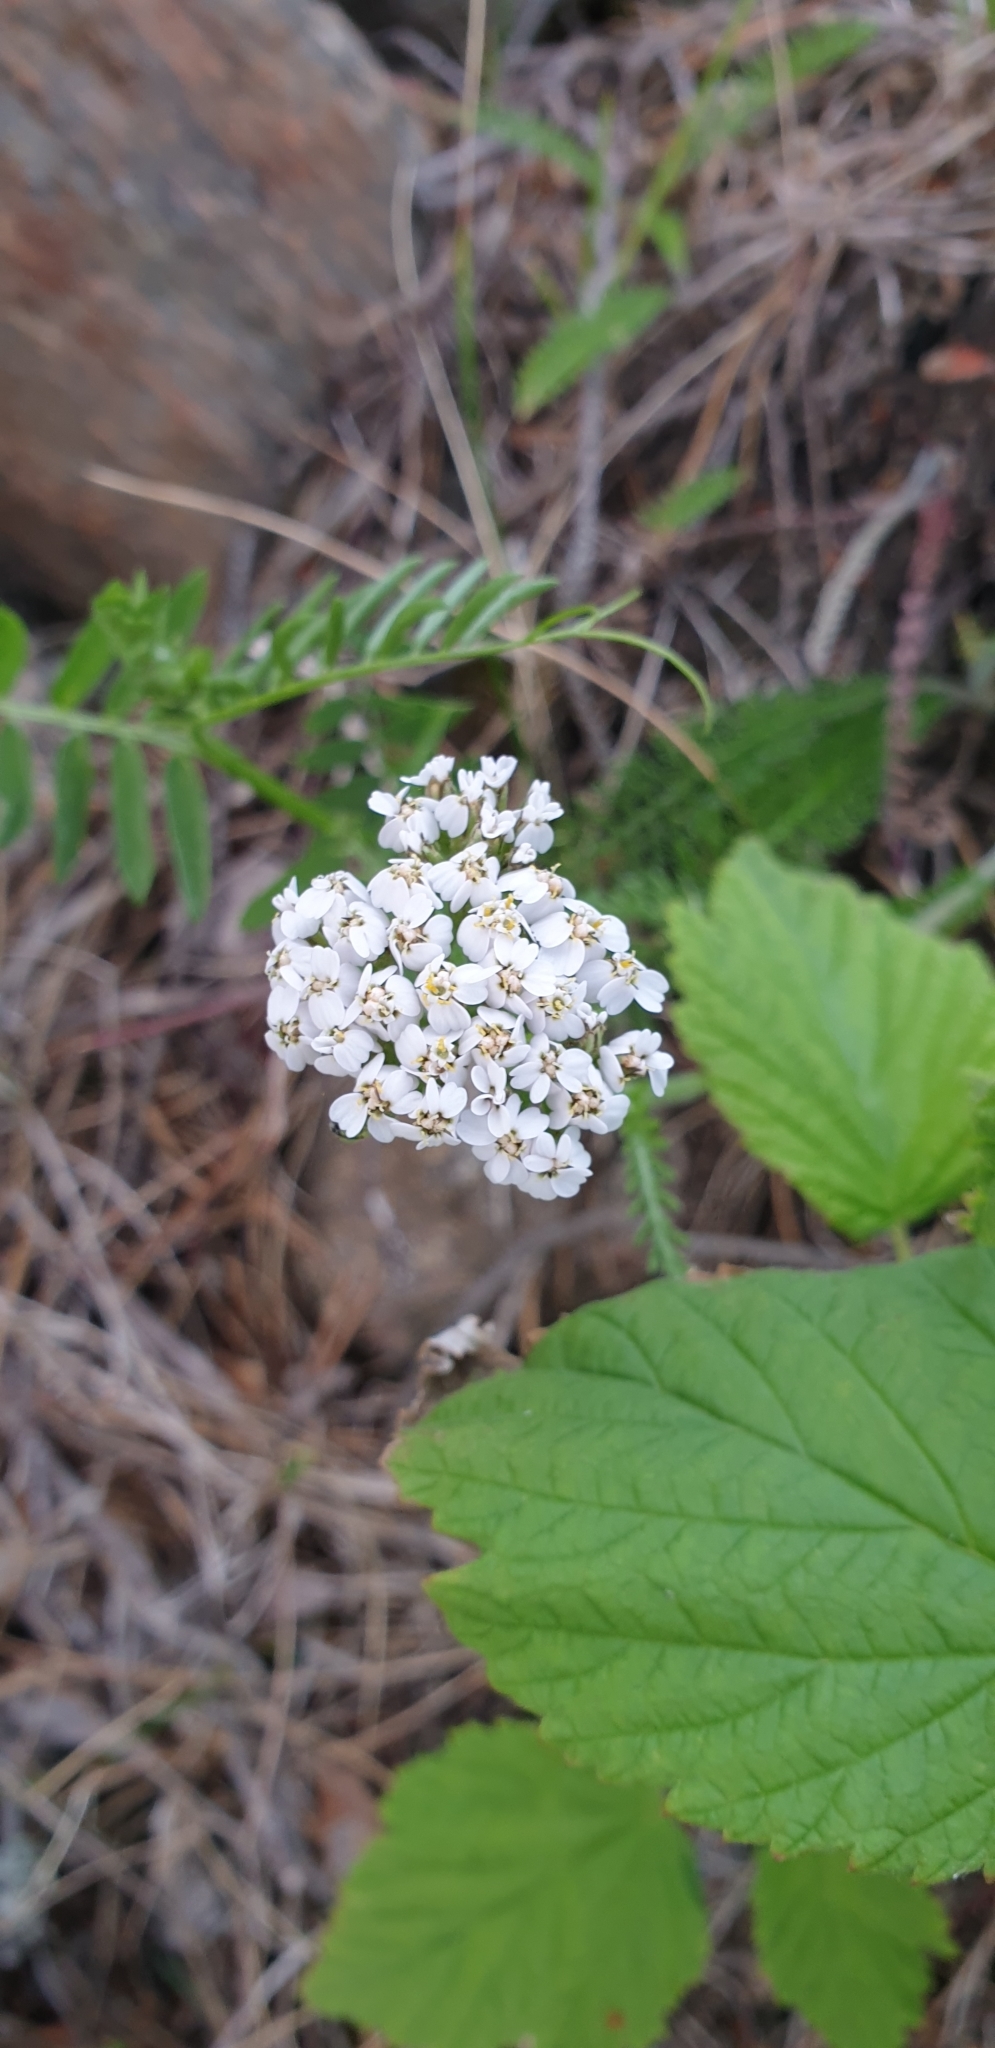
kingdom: Plantae
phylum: Tracheophyta
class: Magnoliopsida
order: Asterales
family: Asteraceae
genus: Achillea
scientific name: Achillea millefolium
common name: Yarrow
